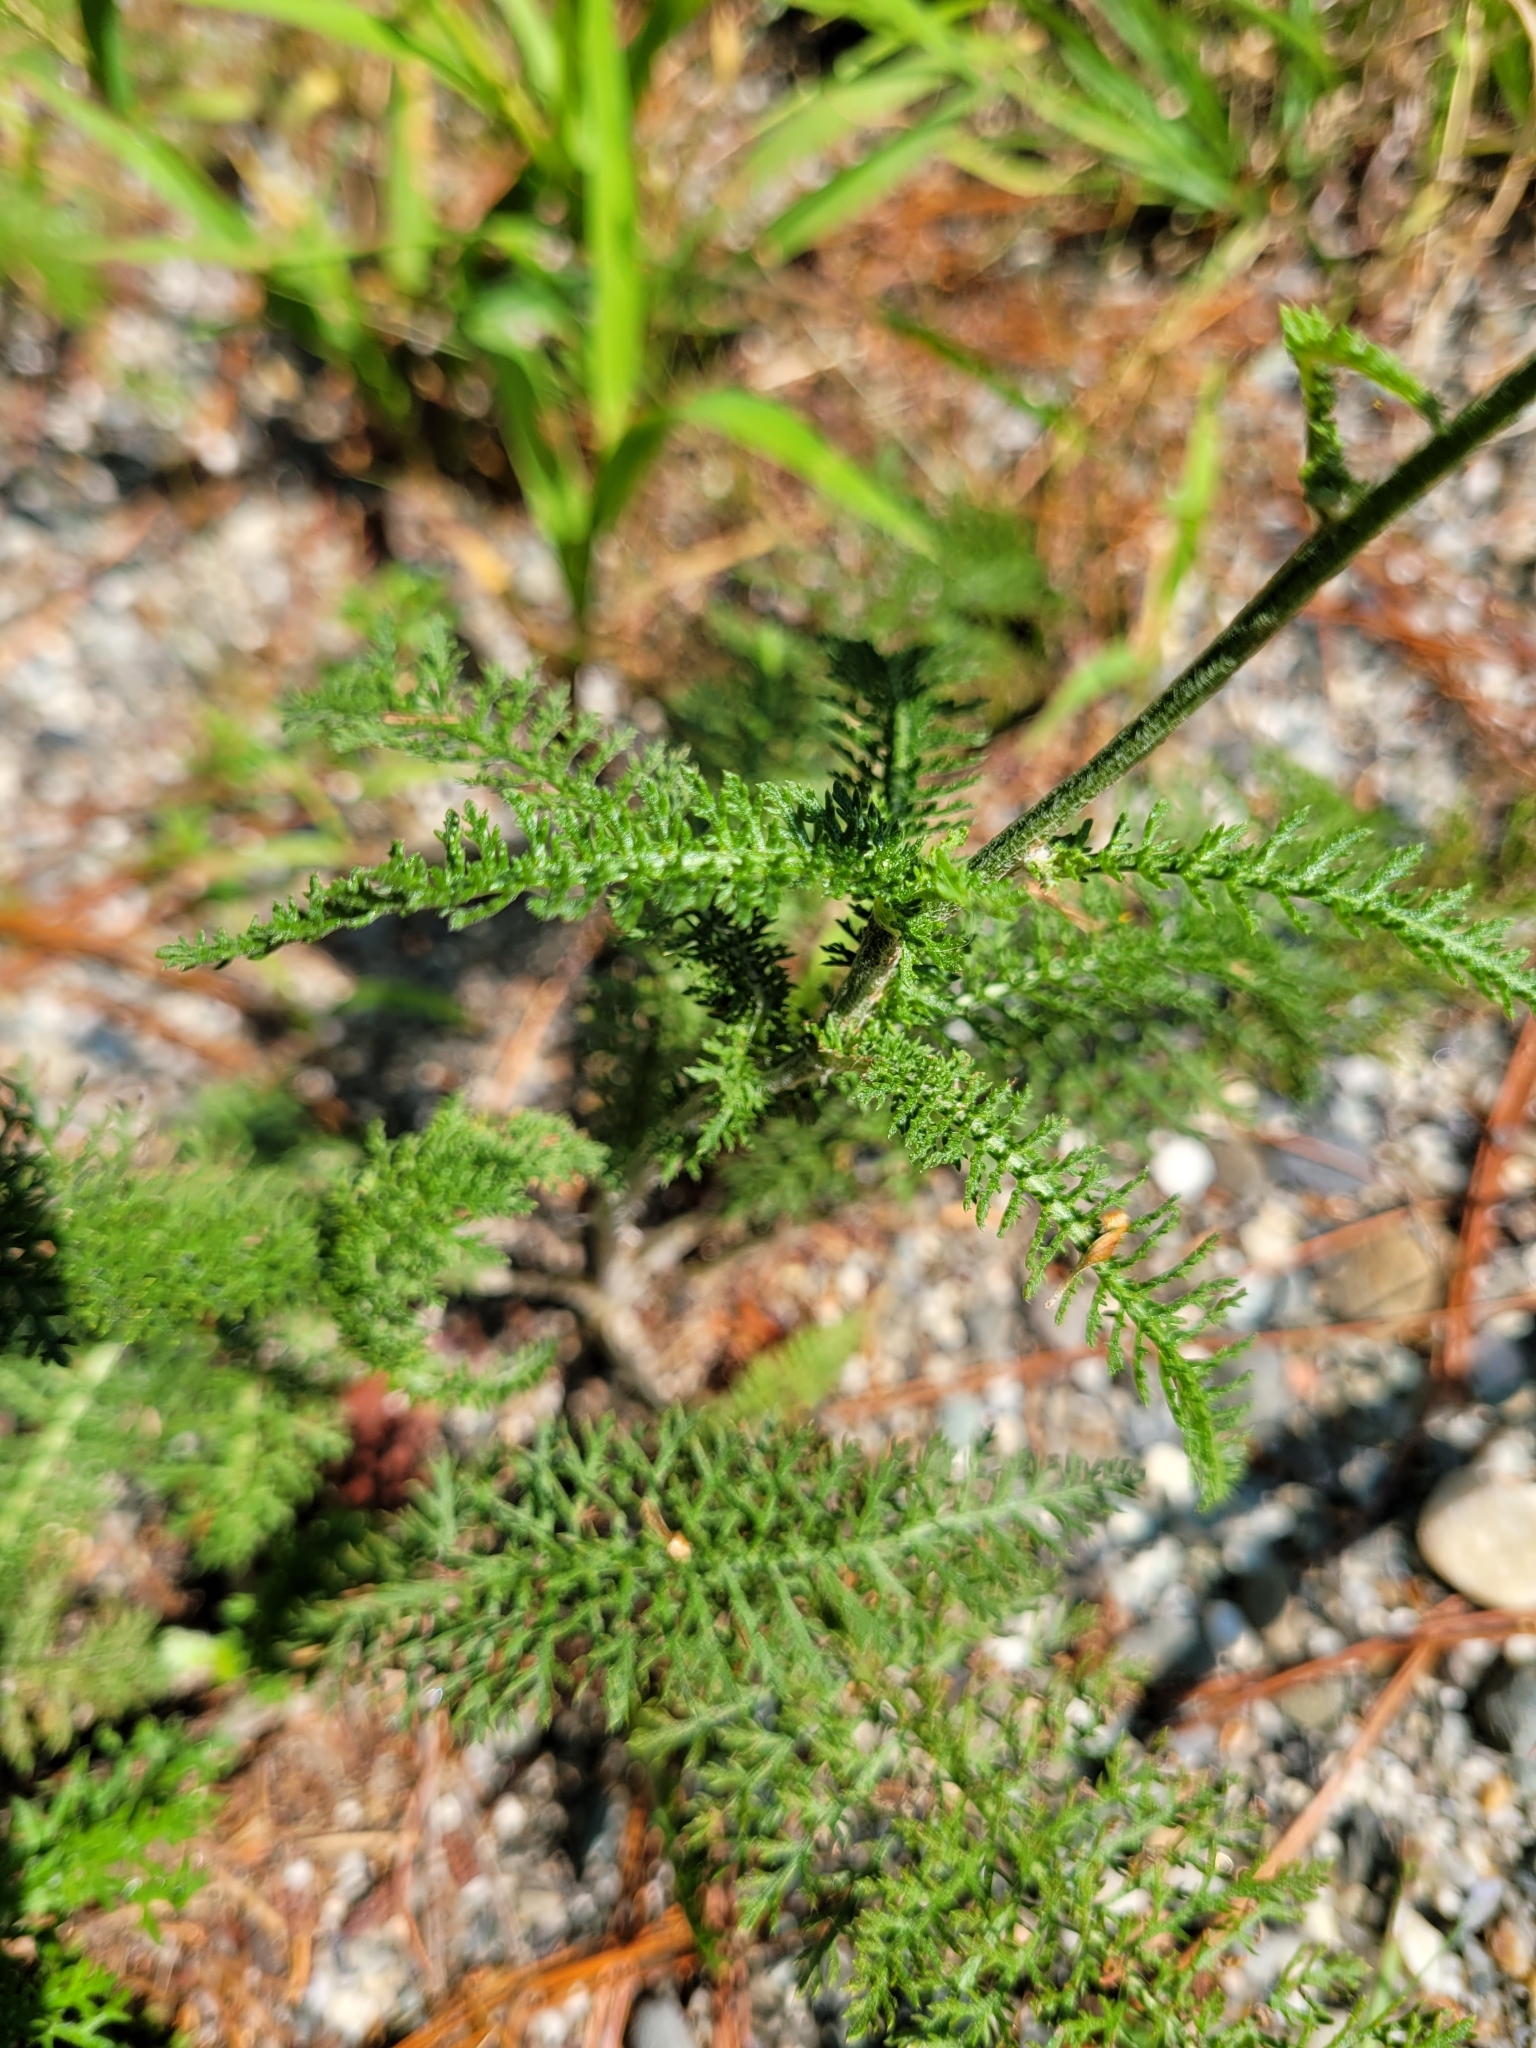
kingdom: Plantae
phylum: Tracheophyta
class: Magnoliopsida
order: Asterales
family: Asteraceae
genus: Achillea
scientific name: Achillea millefolium
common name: Yarrow
